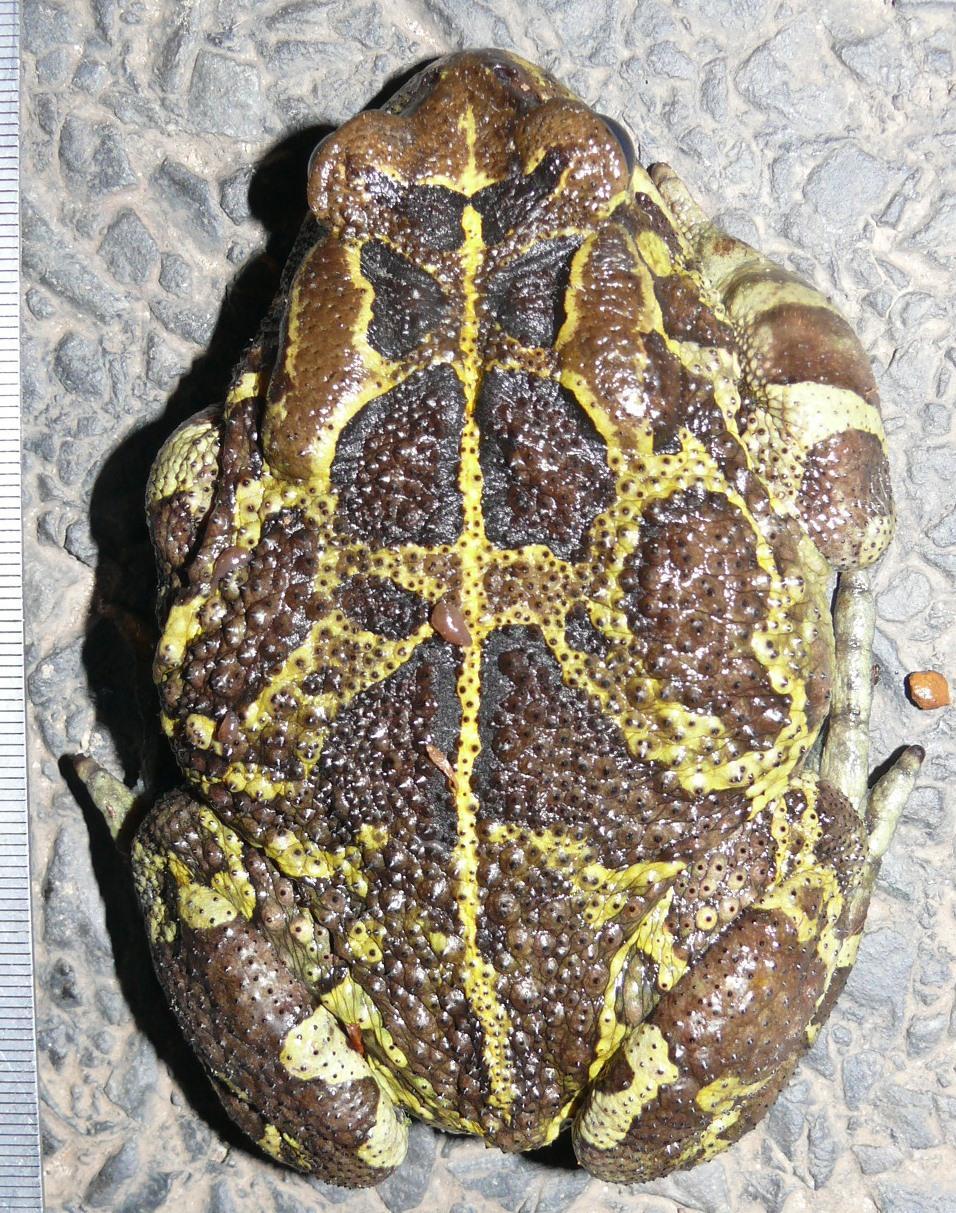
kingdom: Animalia
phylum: Chordata
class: Amphibia
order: Anura
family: Bufonidae
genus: Sclerophrys
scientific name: Sclerophrys pantherina
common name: Panther toad
